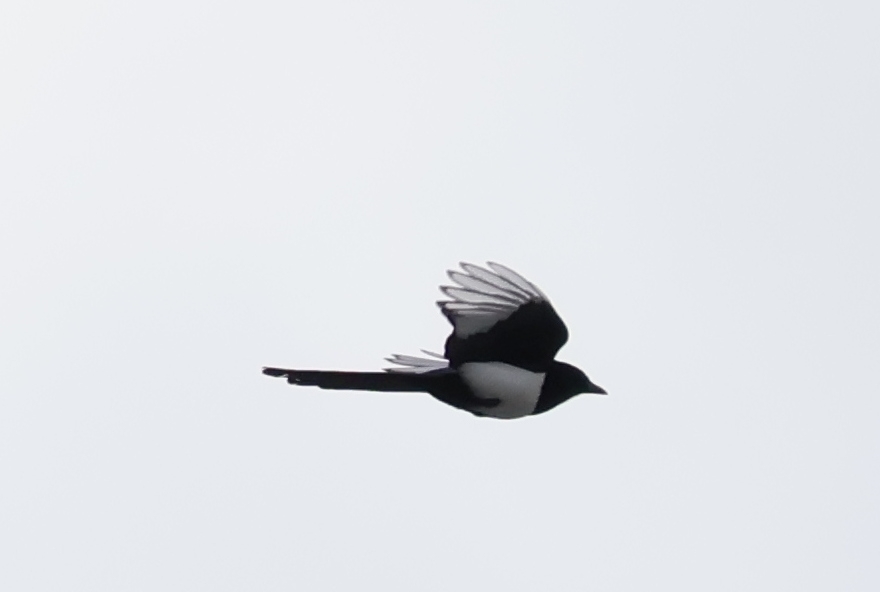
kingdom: Animalia
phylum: Chordata
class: Aves
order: Passeriformes
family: Corvidae
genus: Pica
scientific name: Pica pica
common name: Eurasian magpie
